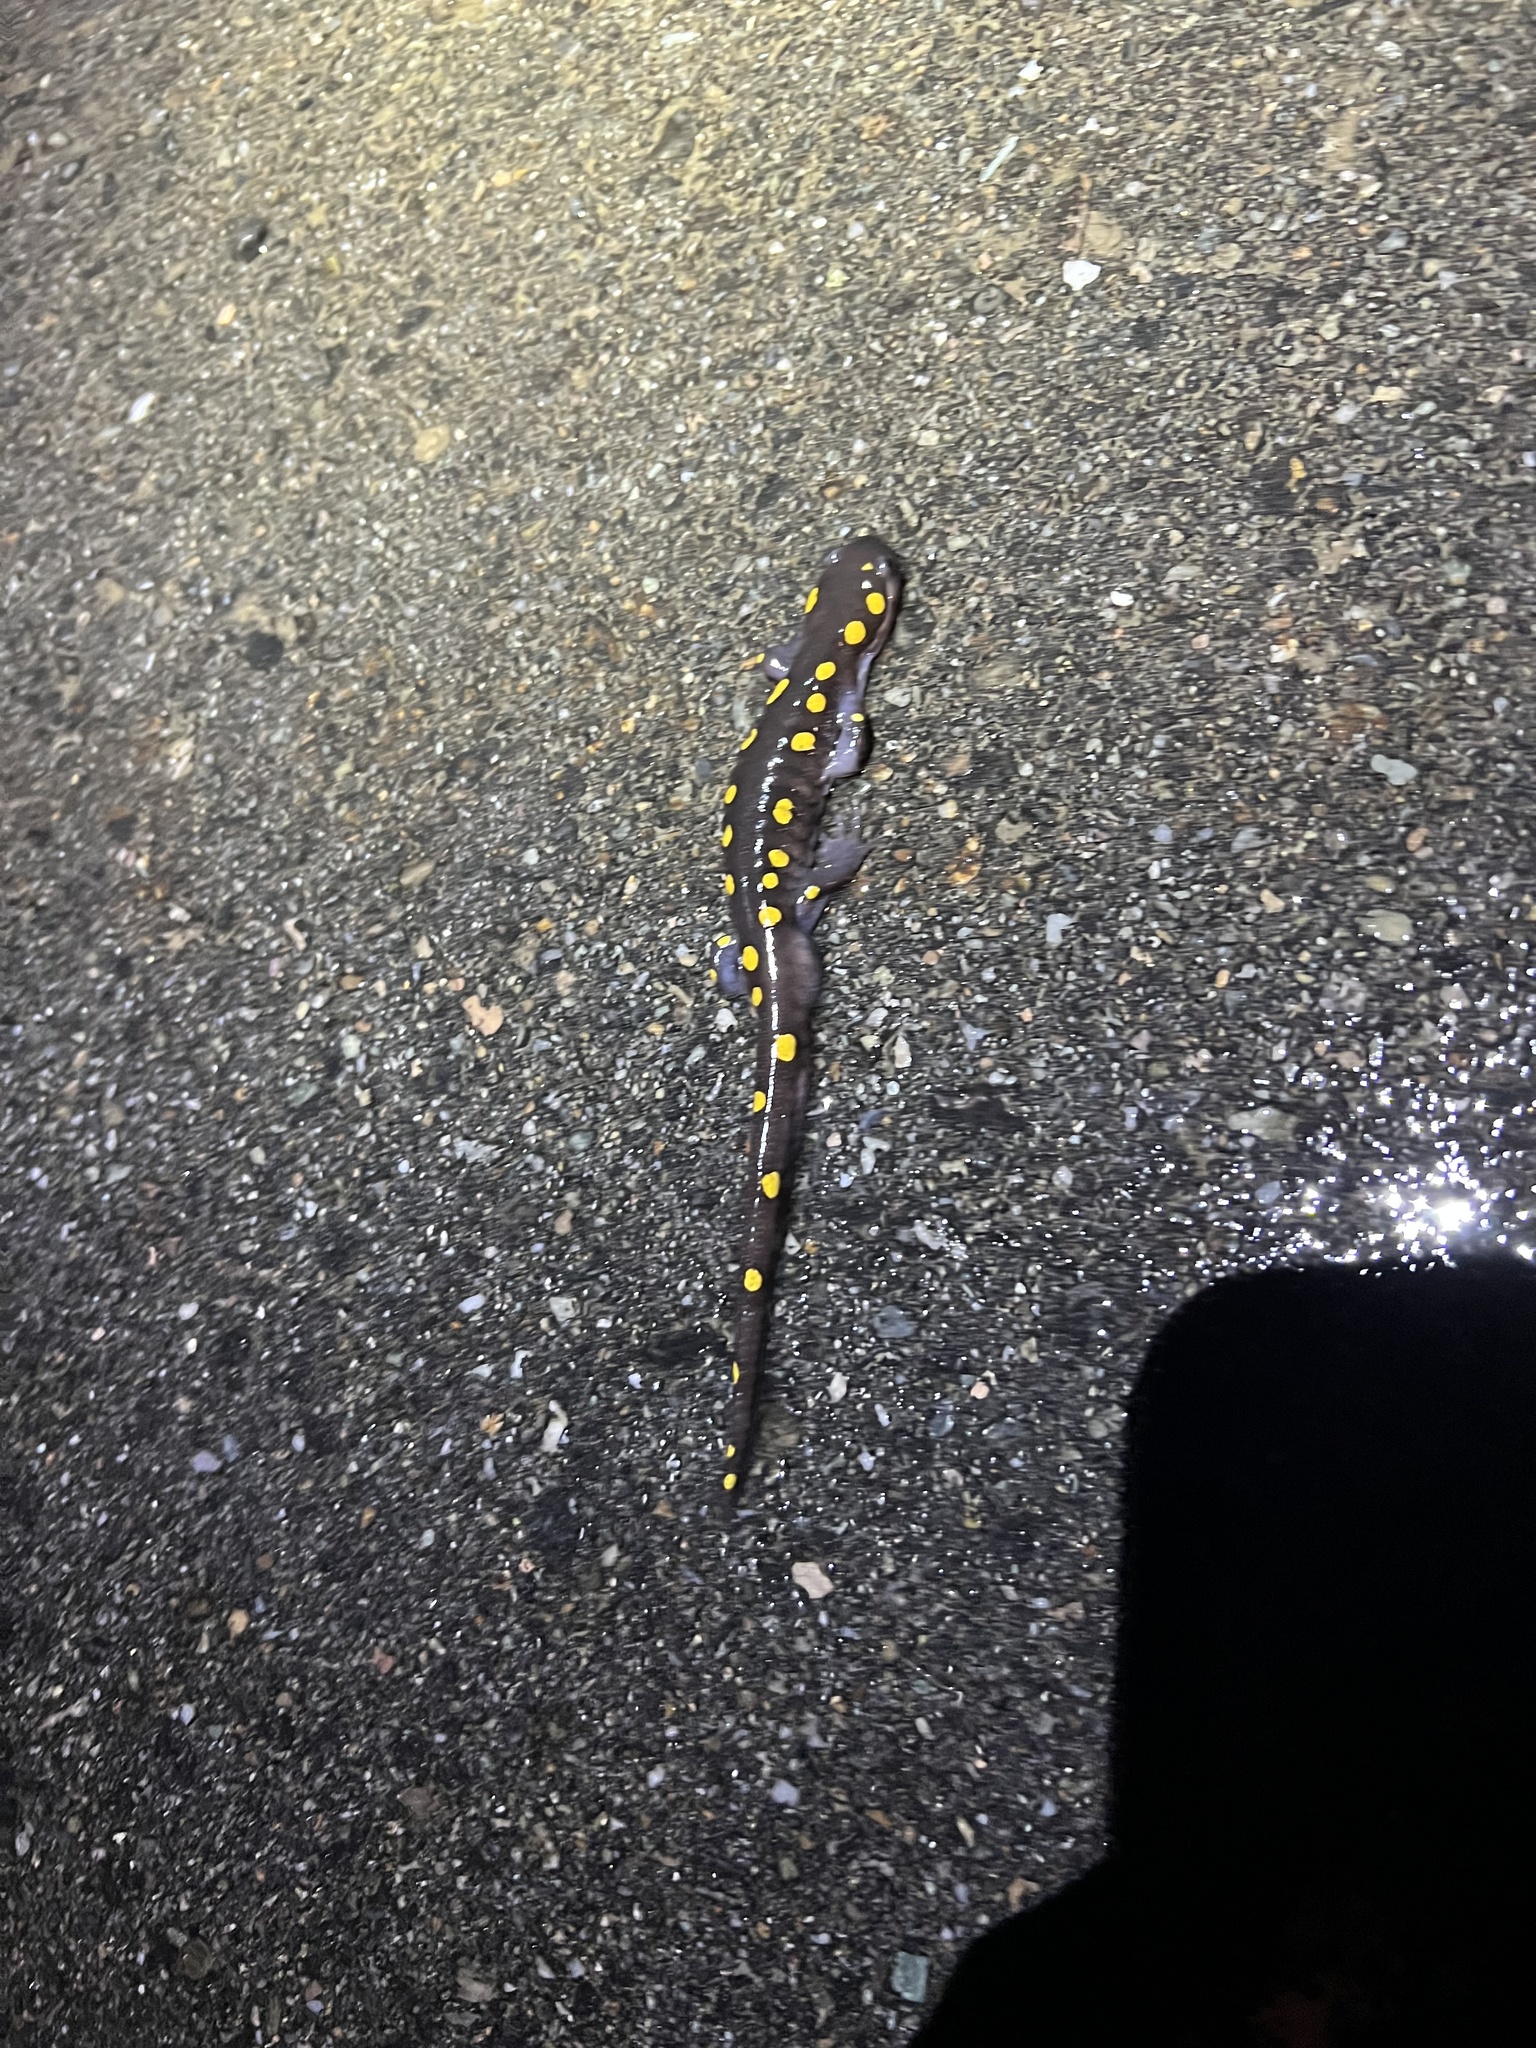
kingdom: Animalia
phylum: Chordata
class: Amphibia
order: Caudata
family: Ambystomatidae
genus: Ambystoma
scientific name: Ambystoma maculatum
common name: Spotted salamander
